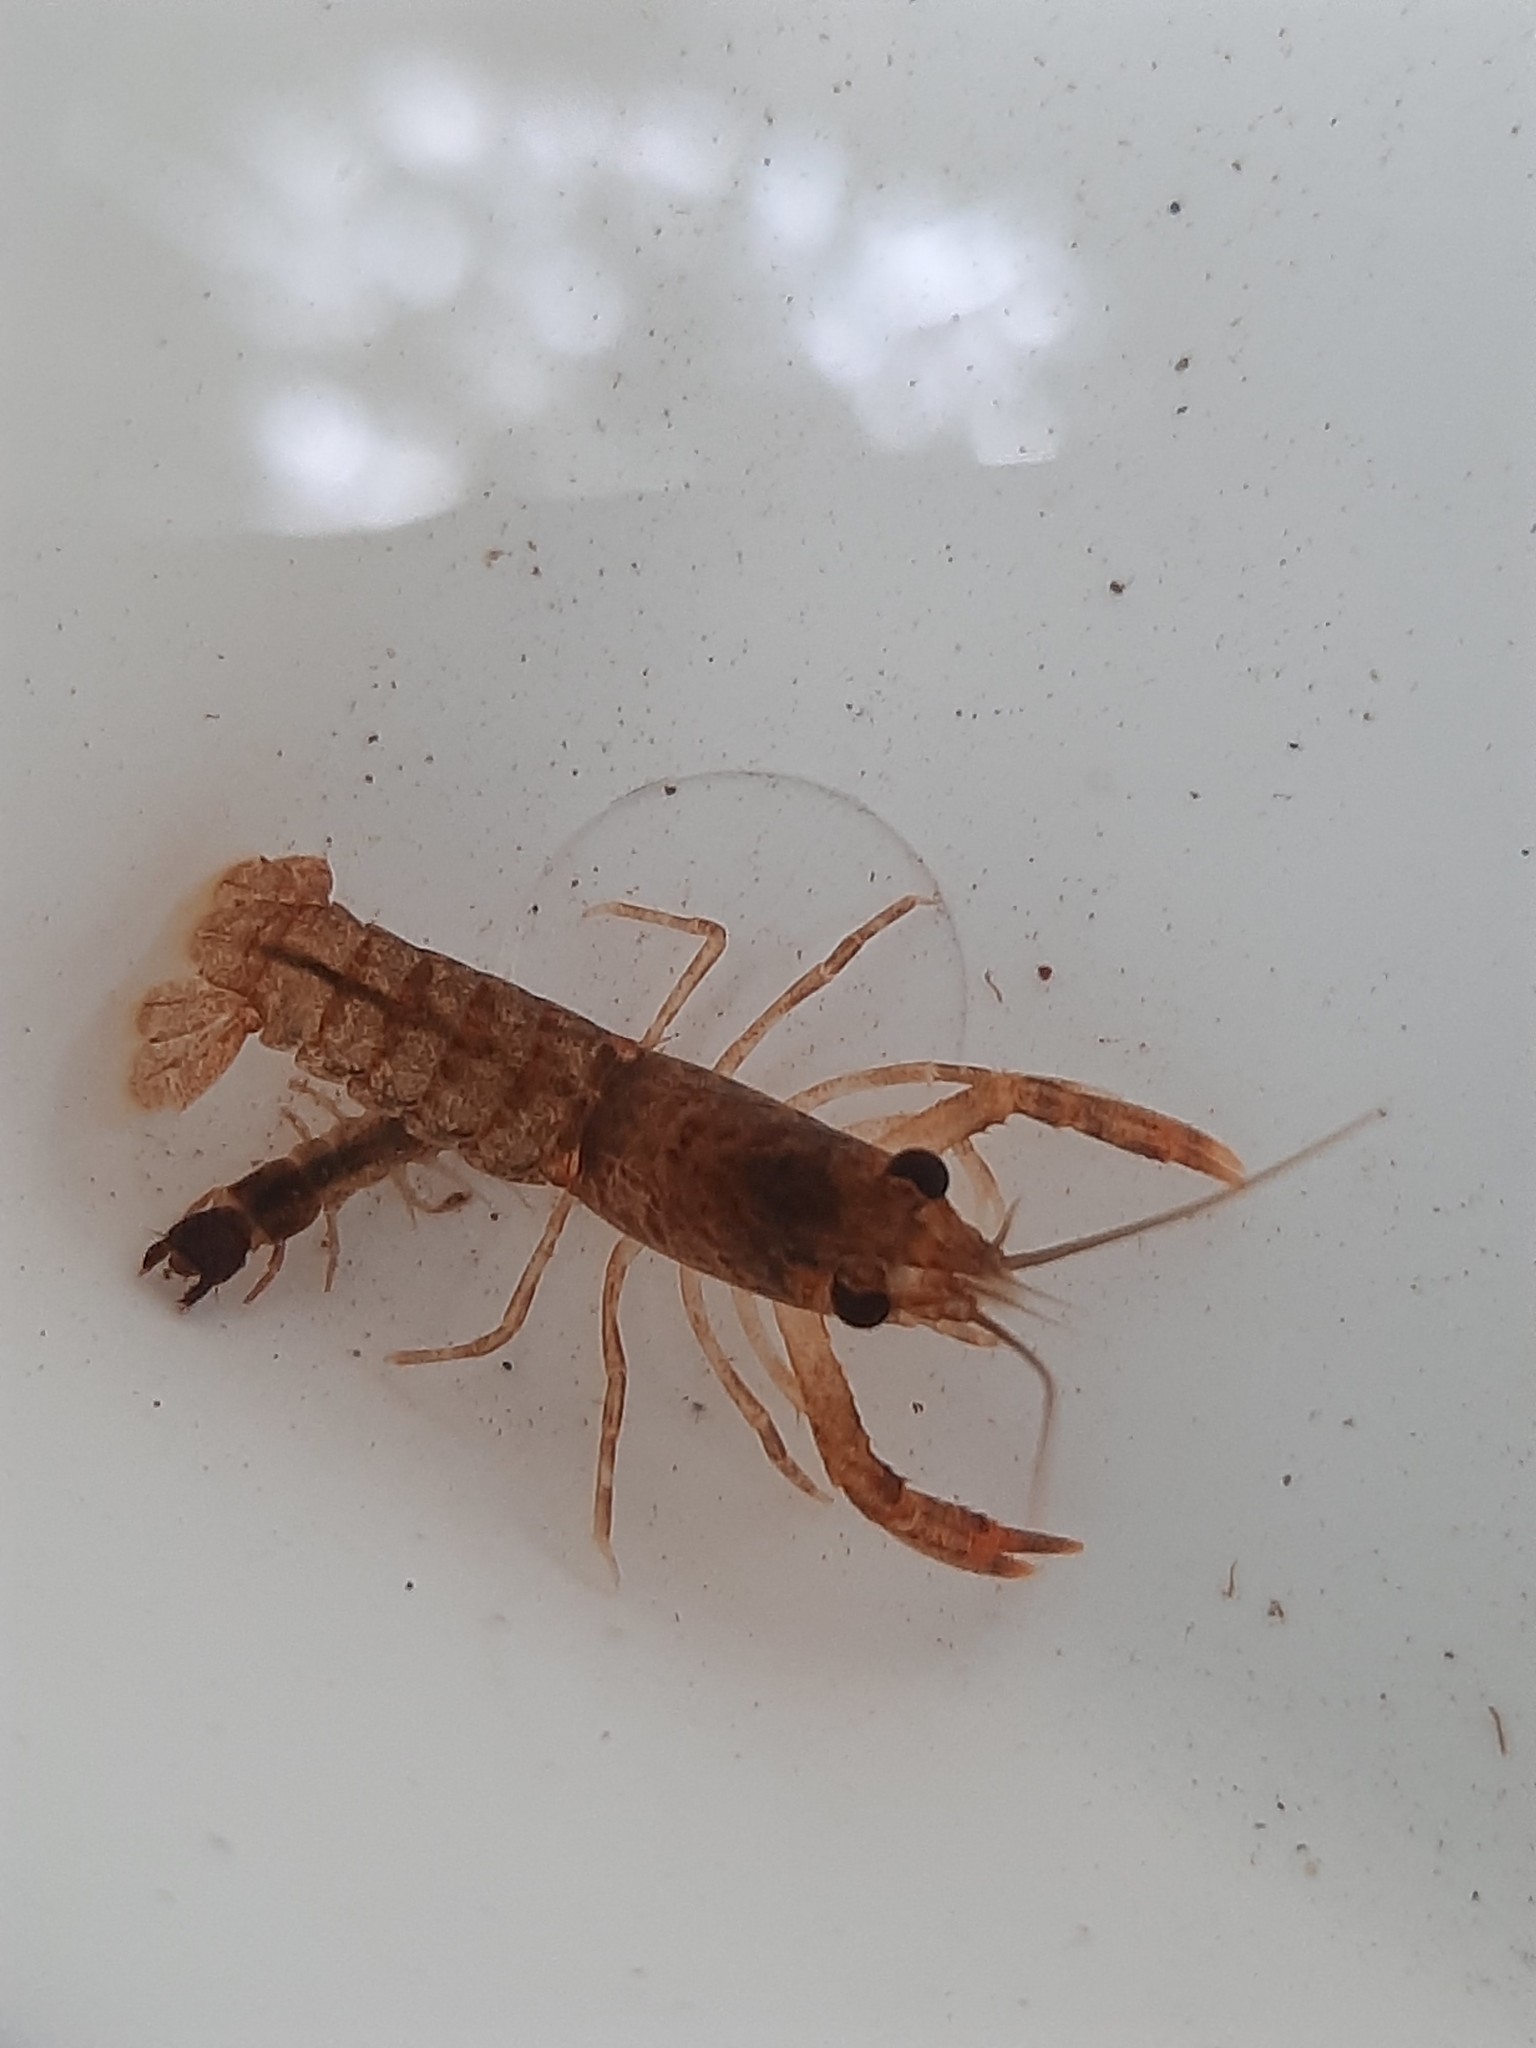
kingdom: Animalia
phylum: Arthropoda
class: Malacostraca
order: Decapoda
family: Parastacidae
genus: Paranephrops
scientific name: Paranephrops planifrons
